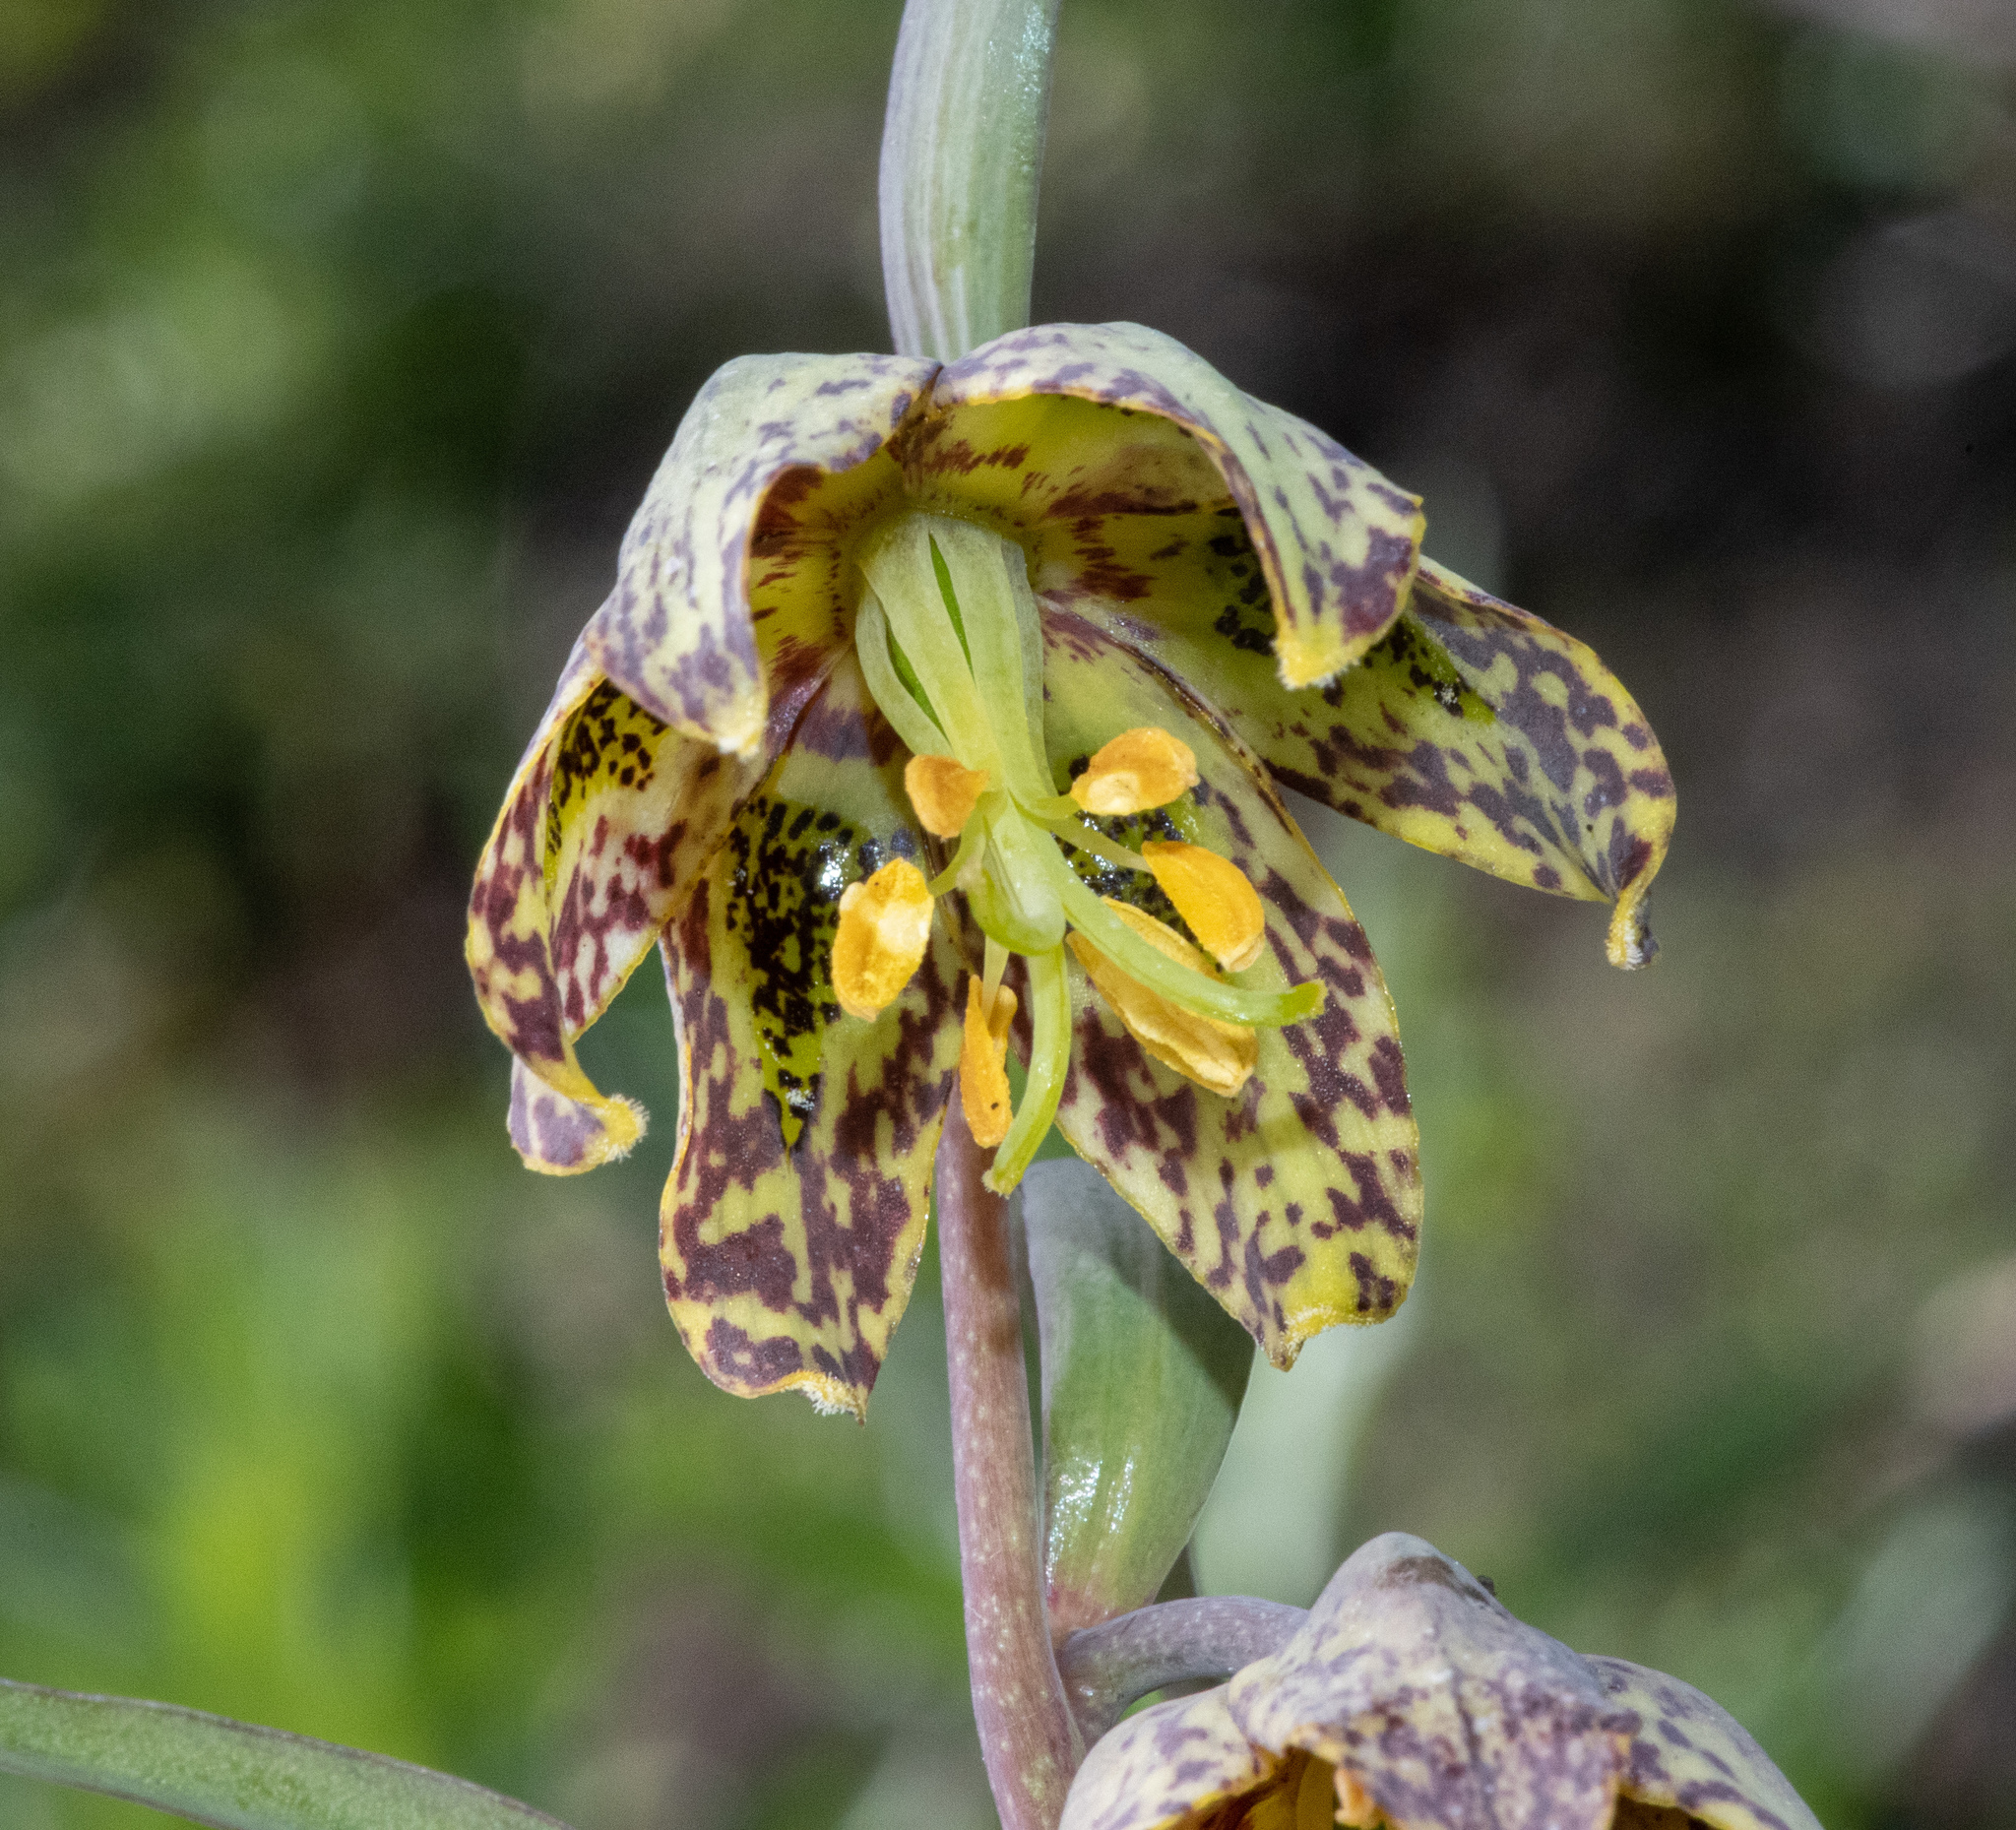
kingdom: Plantae
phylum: Tracheophyta
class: Liliopsida
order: Liliales
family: Liliaceae
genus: Fritillaria
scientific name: Fritillaria affinis
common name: Ojai fritillary
